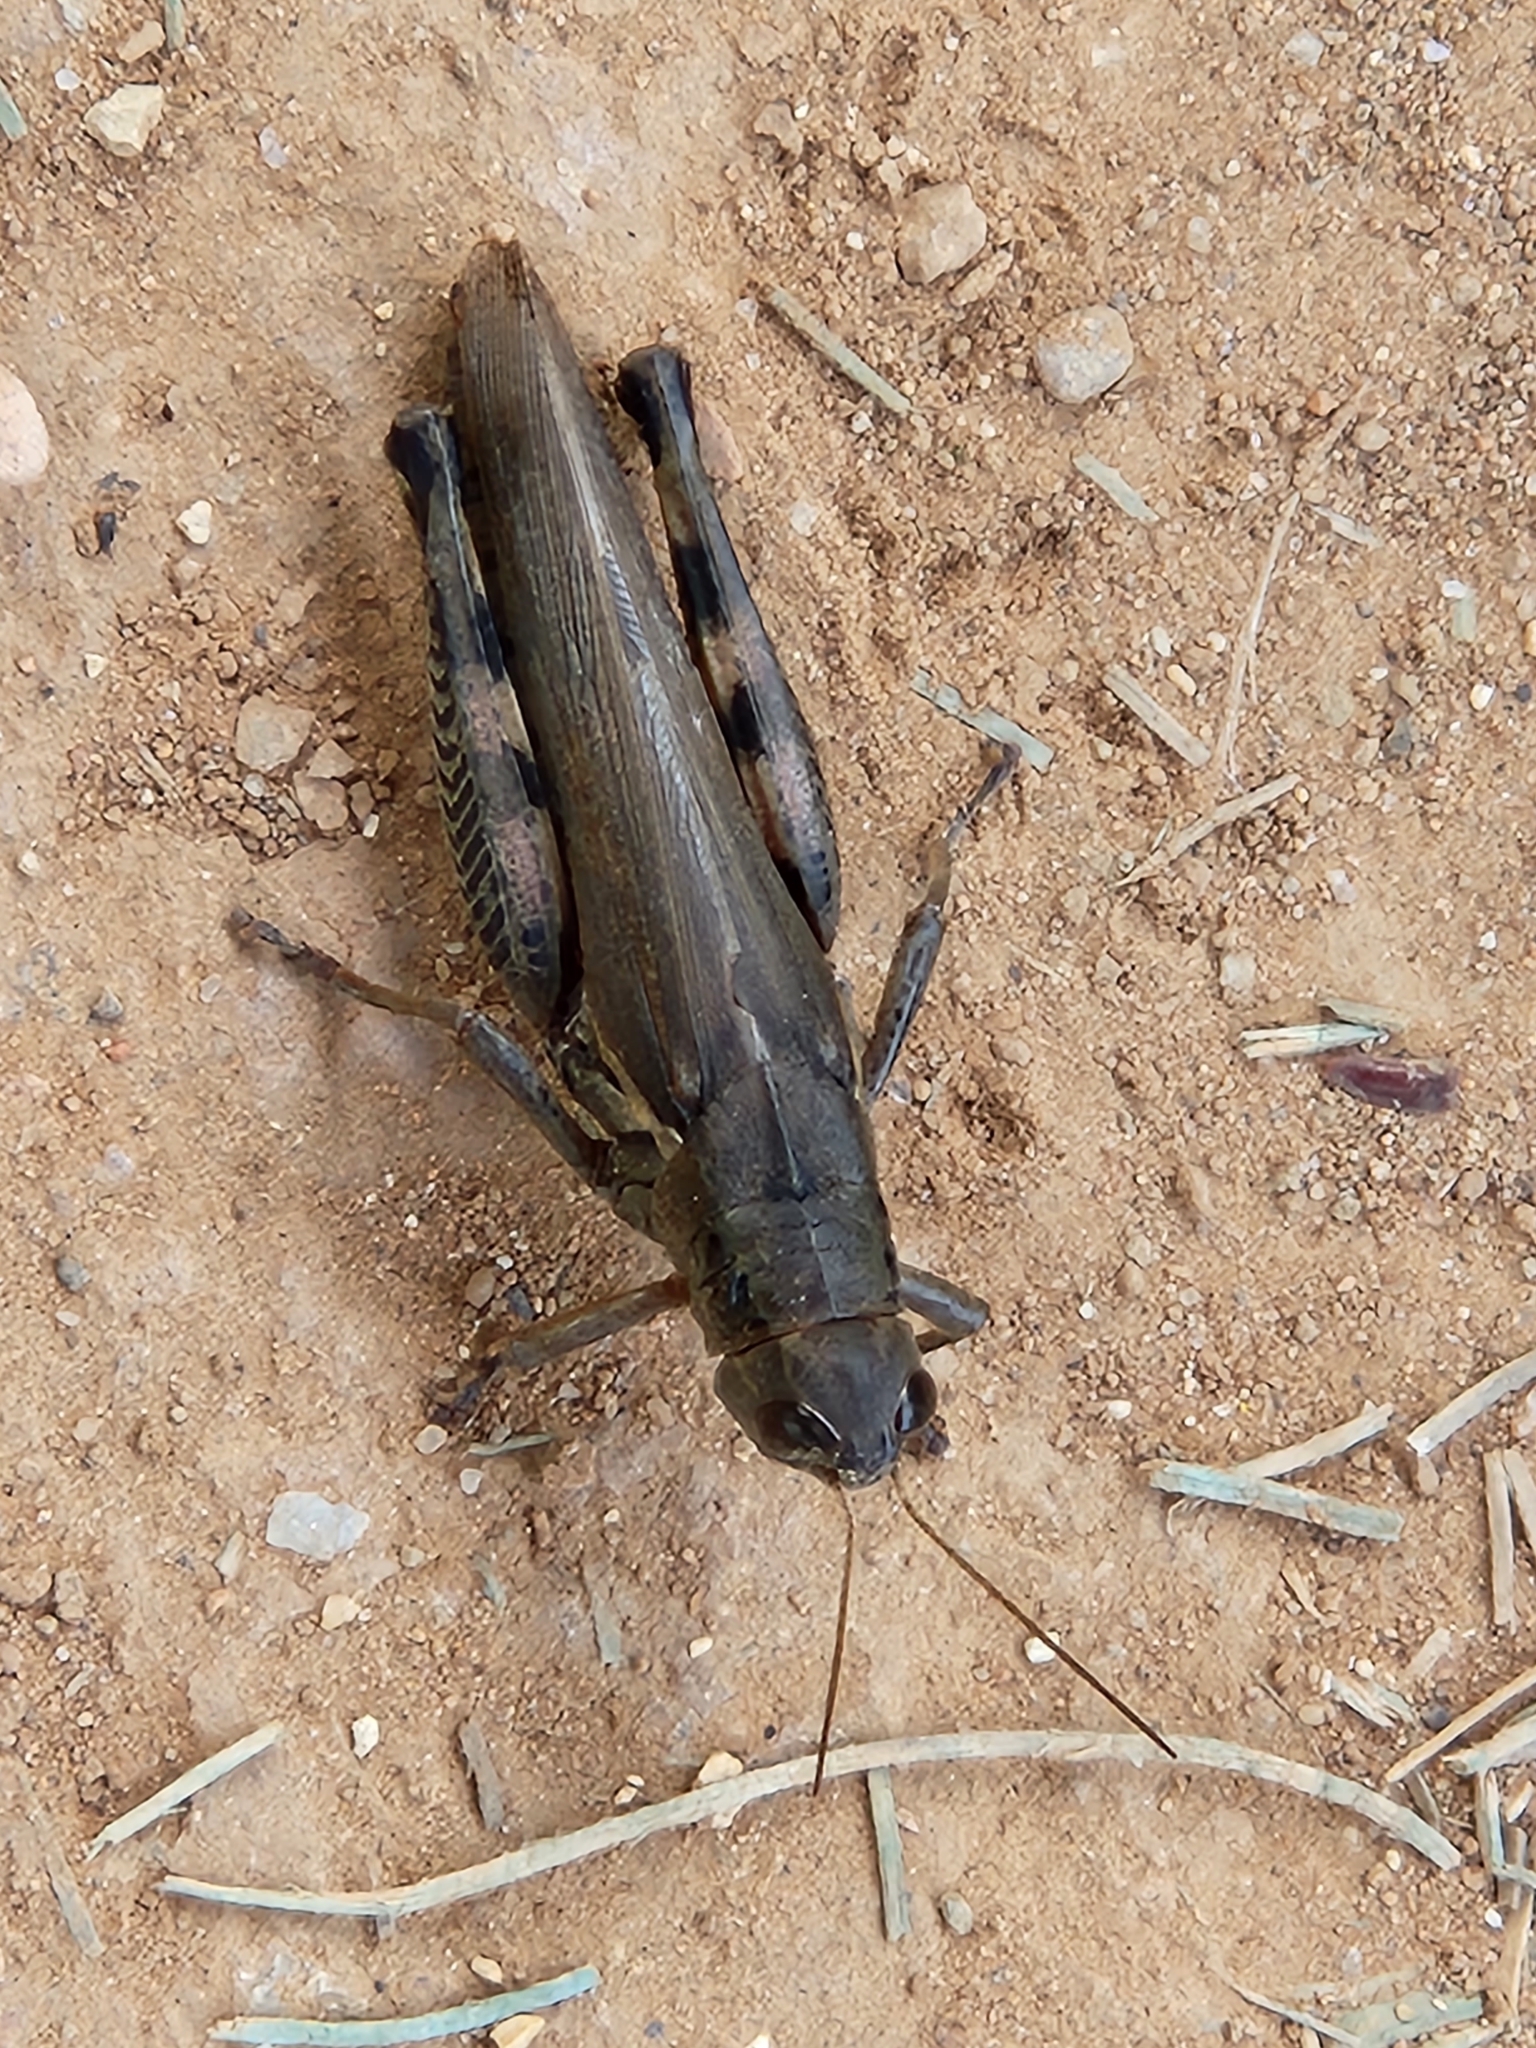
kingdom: Animalia
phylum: Arthropoda
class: Insecta
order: Orthoptera
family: Acrididae
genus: Melanoplus
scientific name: Melanoplus differentialis
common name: Differential grasshopper
